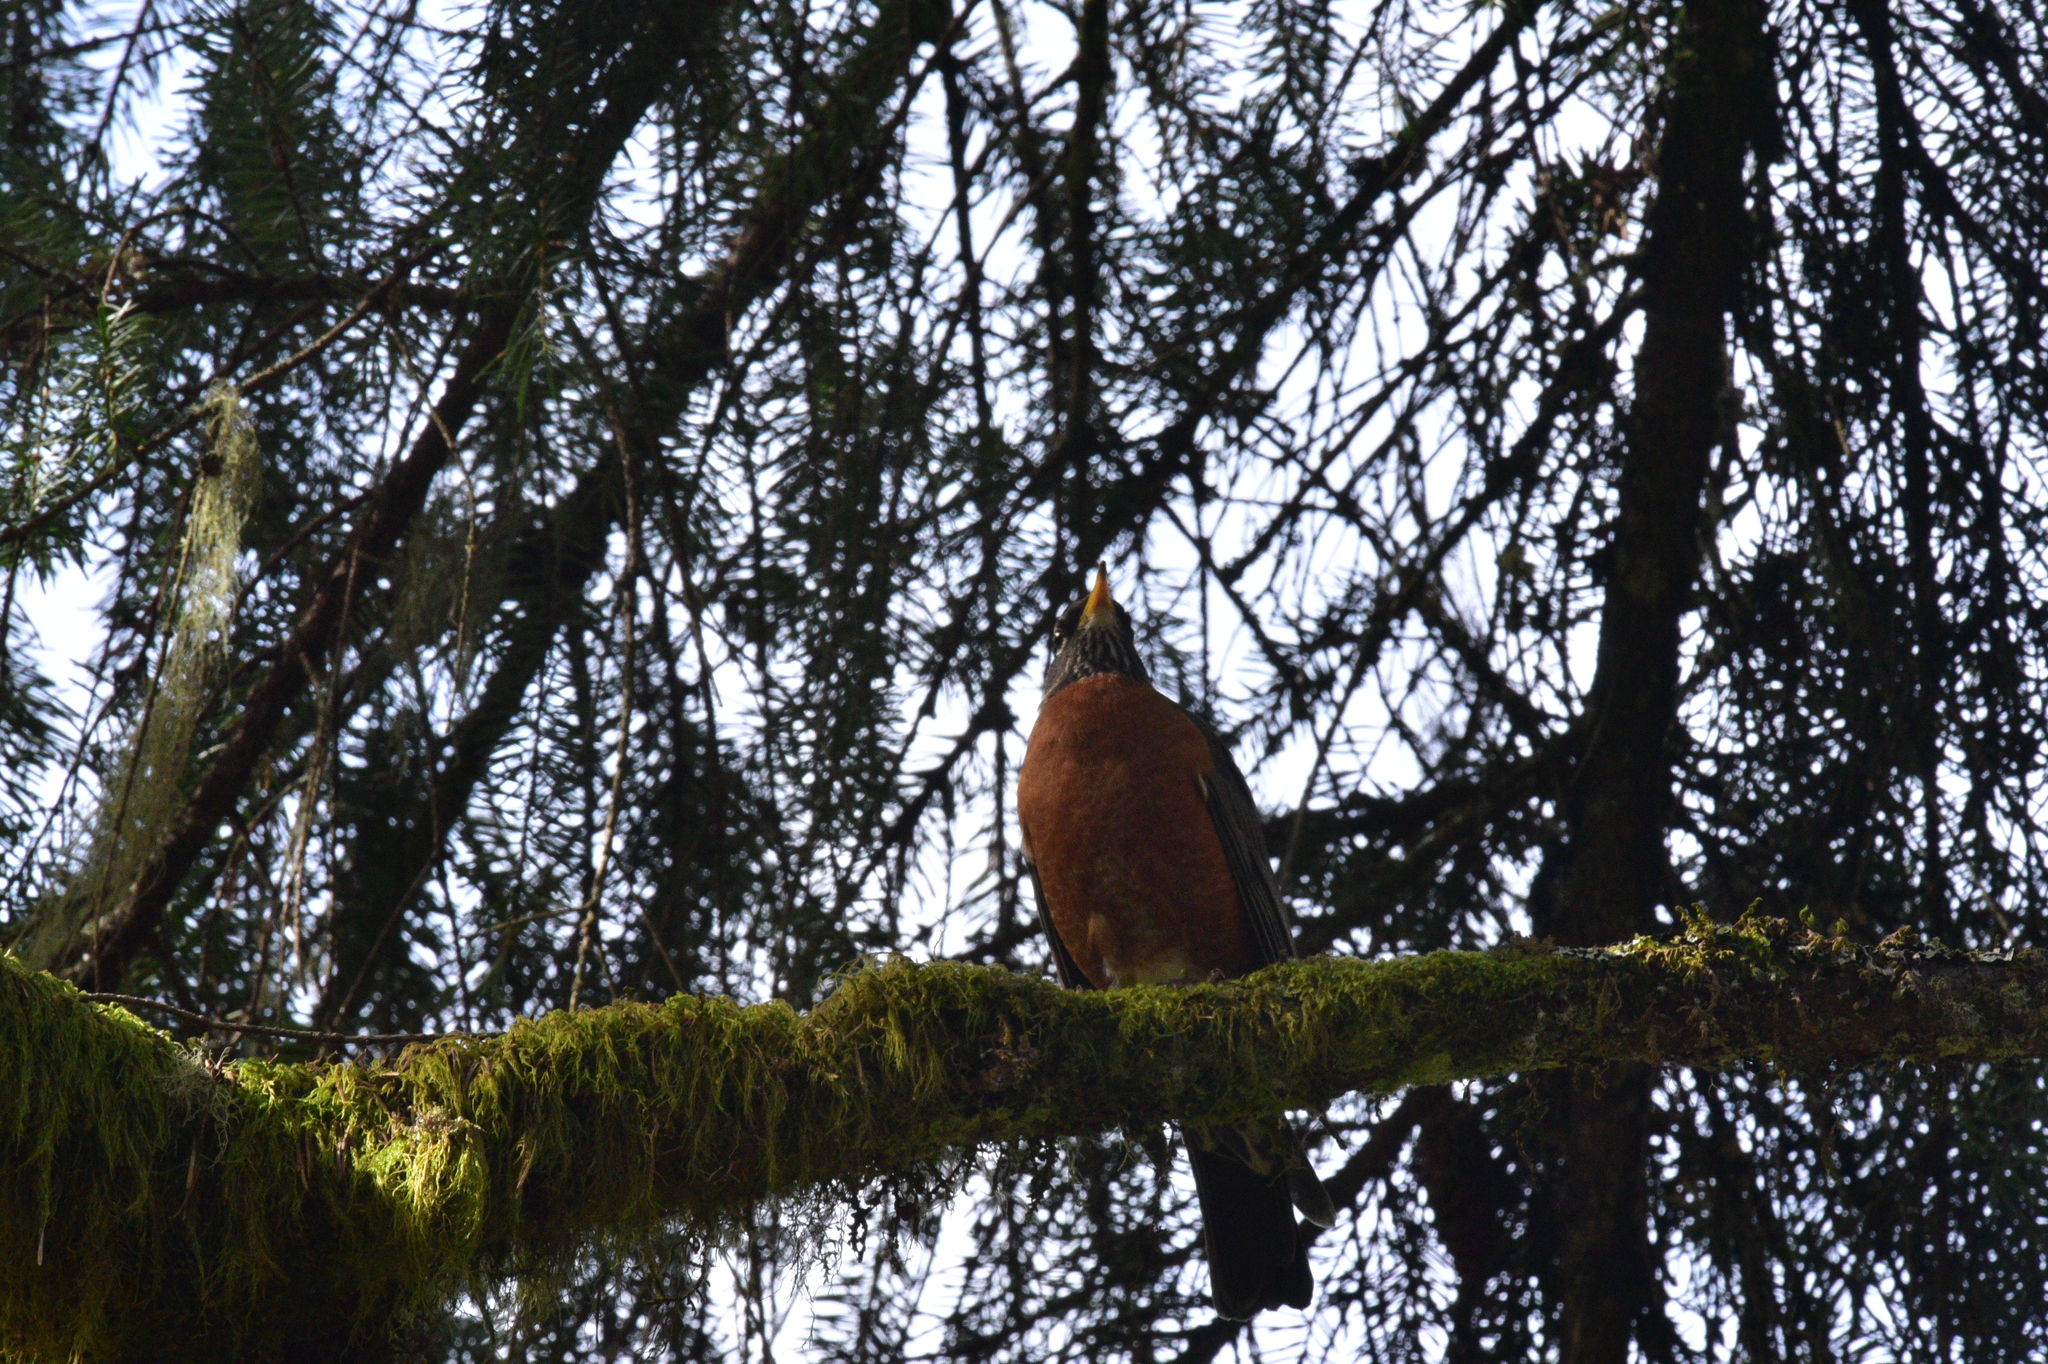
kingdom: Animalia
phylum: Chordata
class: Aves
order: Passeriformes
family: Turdidae
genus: Turdus
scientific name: Turdus migratorius
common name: American robin
